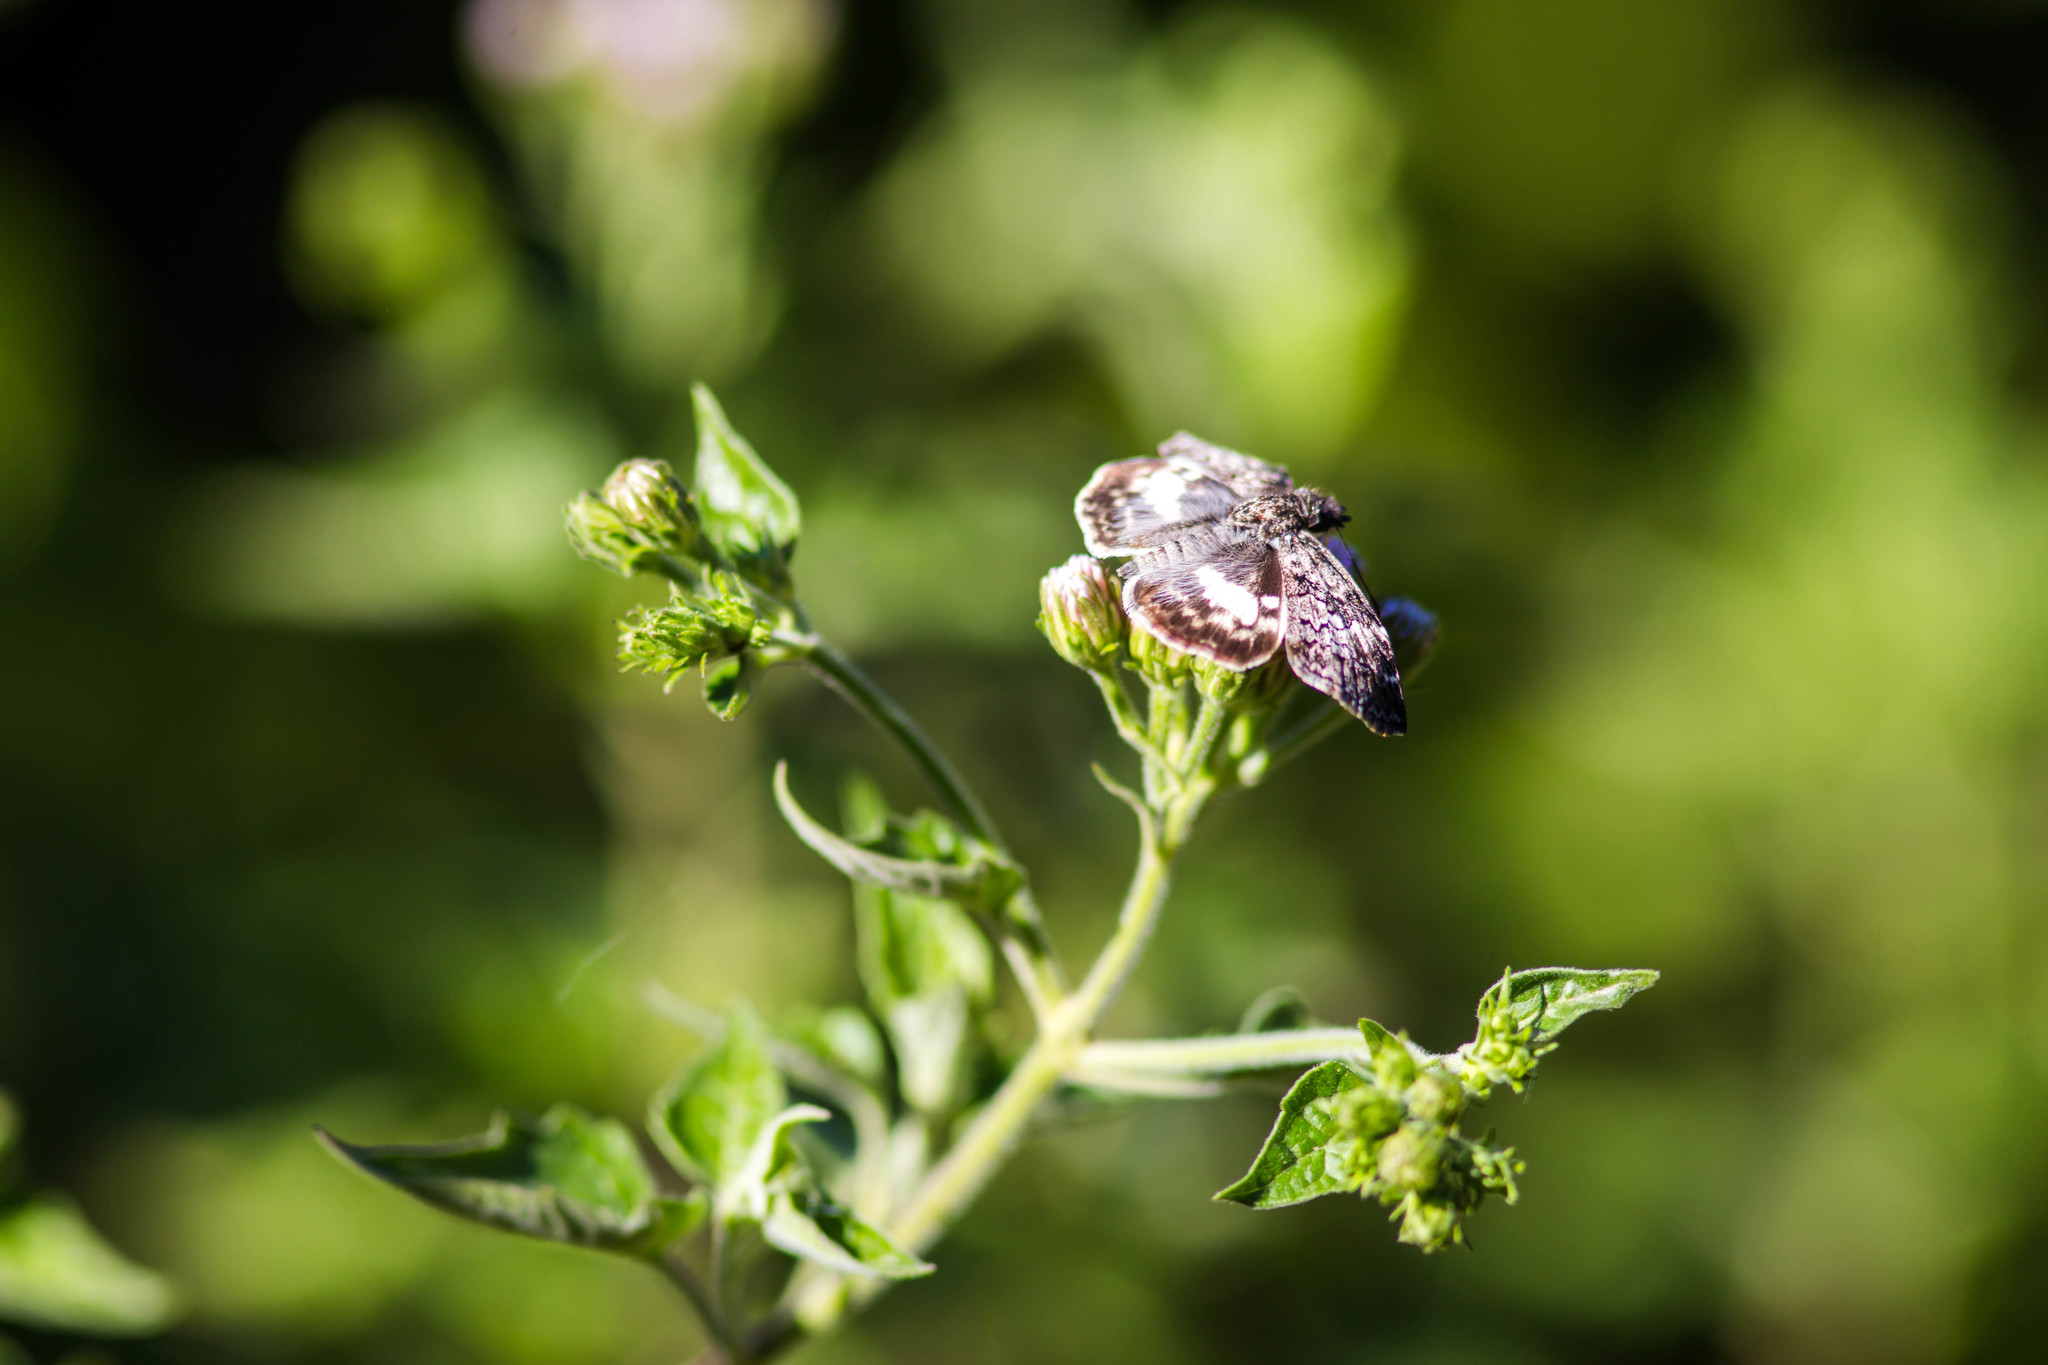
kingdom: Animalia
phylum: Arthropoda
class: Insecta
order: Lepidoptera
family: Hesperiidae
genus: Chiothion
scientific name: Chiothion georgina
